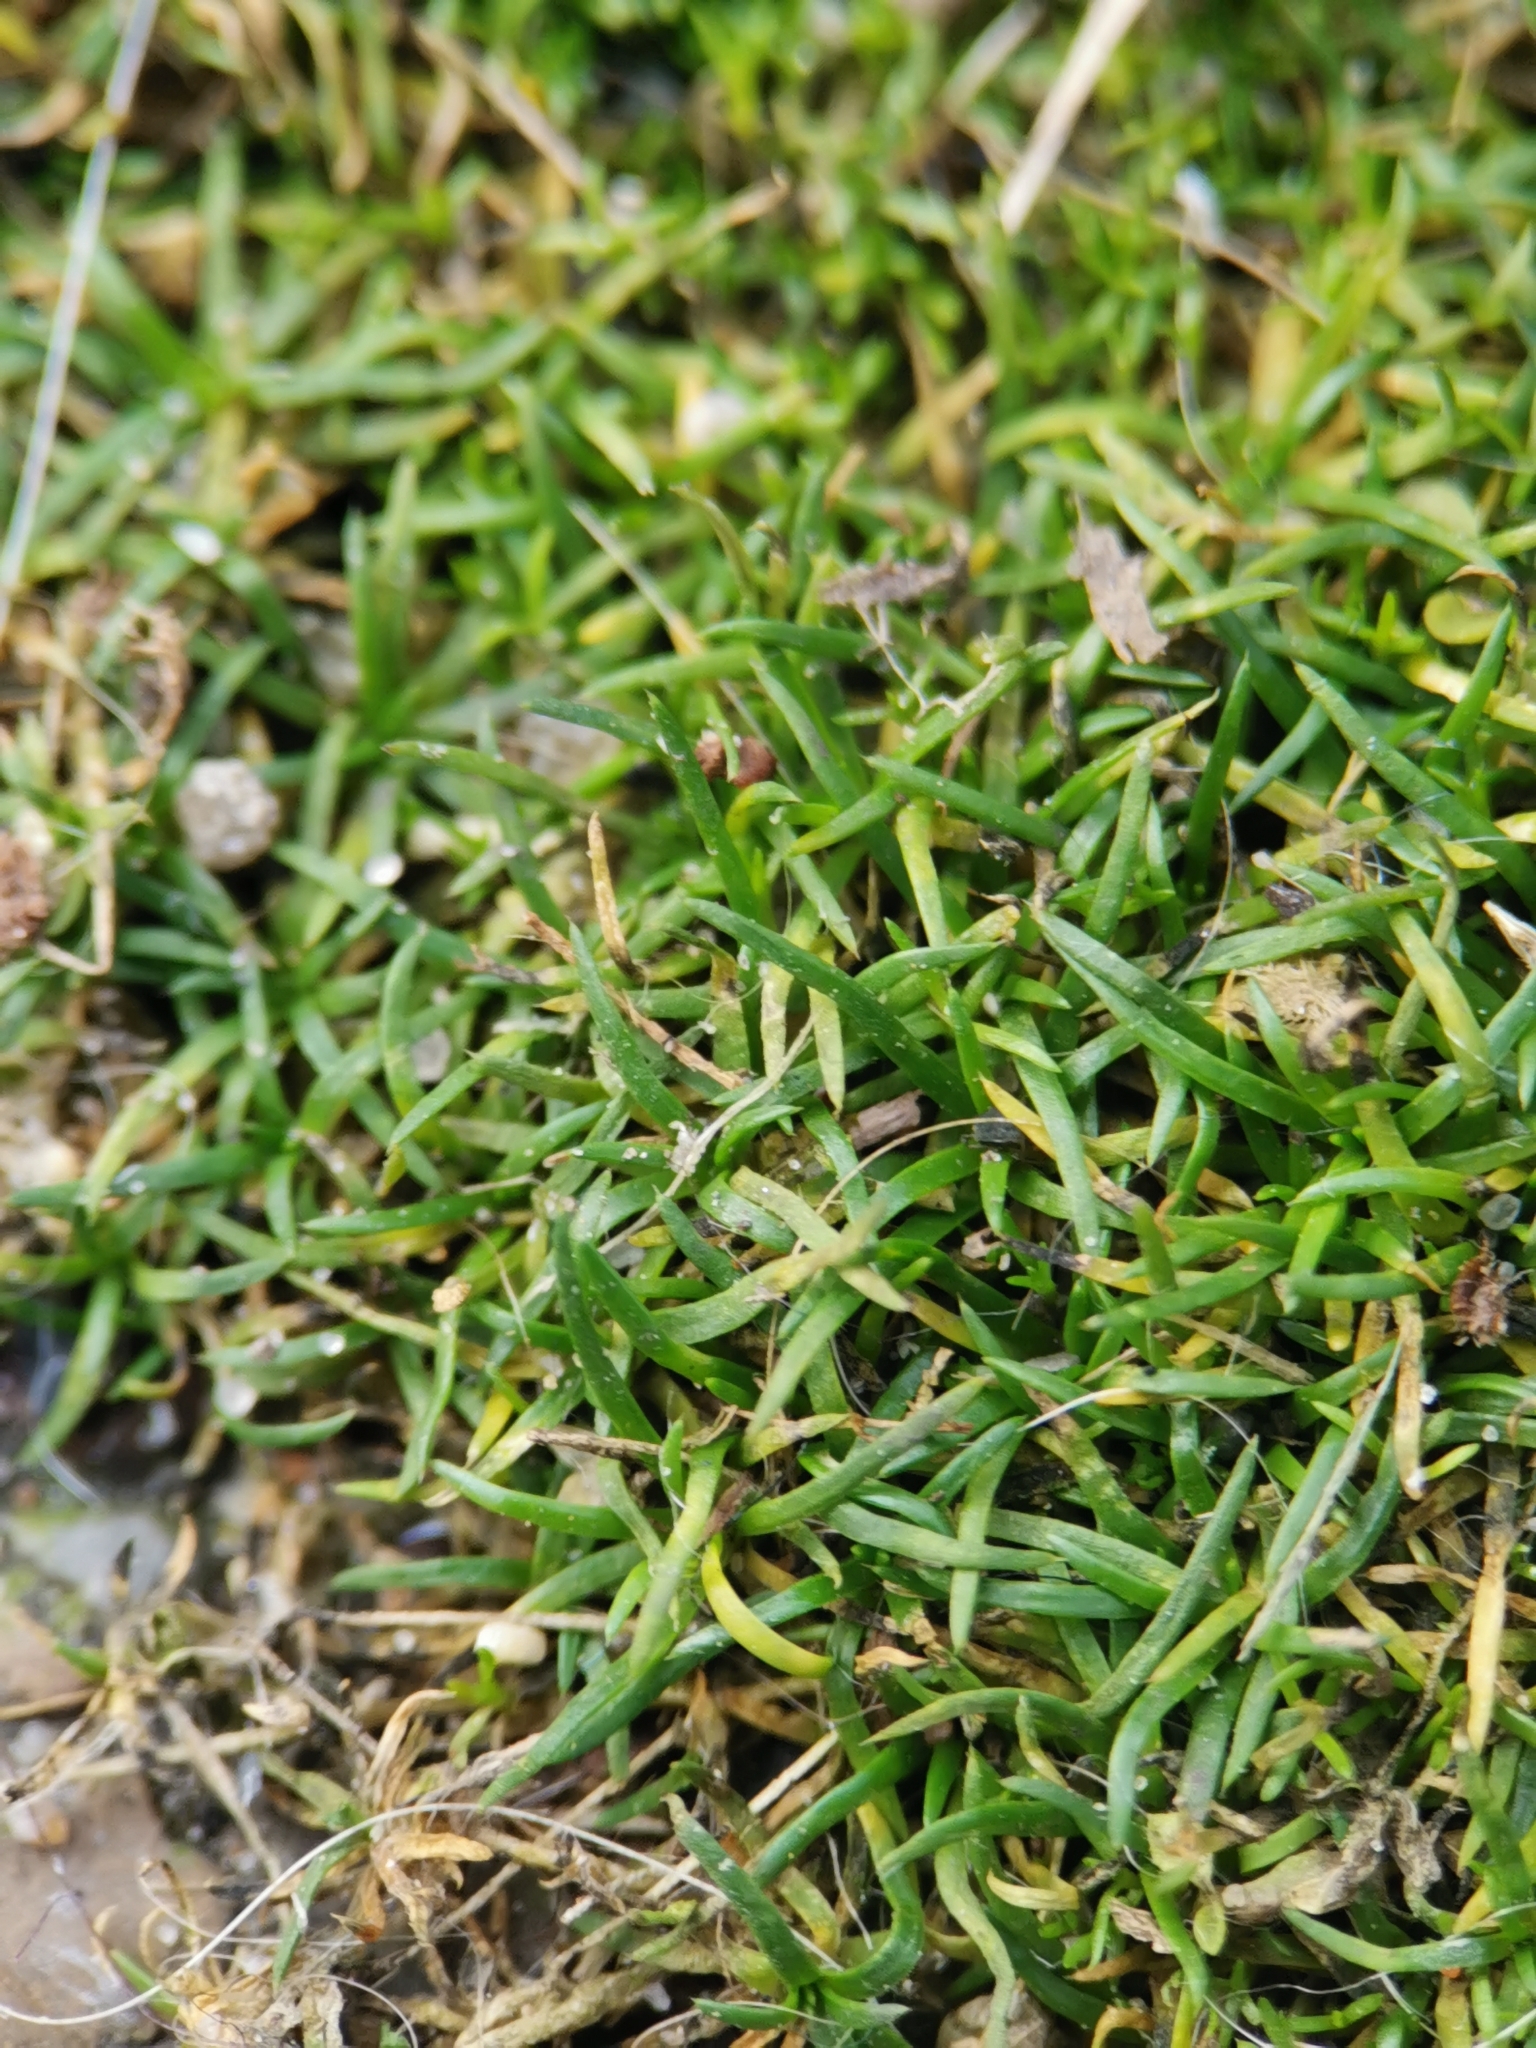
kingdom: Plantae
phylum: Tracheophyta
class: Magnoliopsida
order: Caryophyllales
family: Caryophyllaceae
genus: Sagina
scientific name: Sagina procumbens
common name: Procumbent pearlwort
